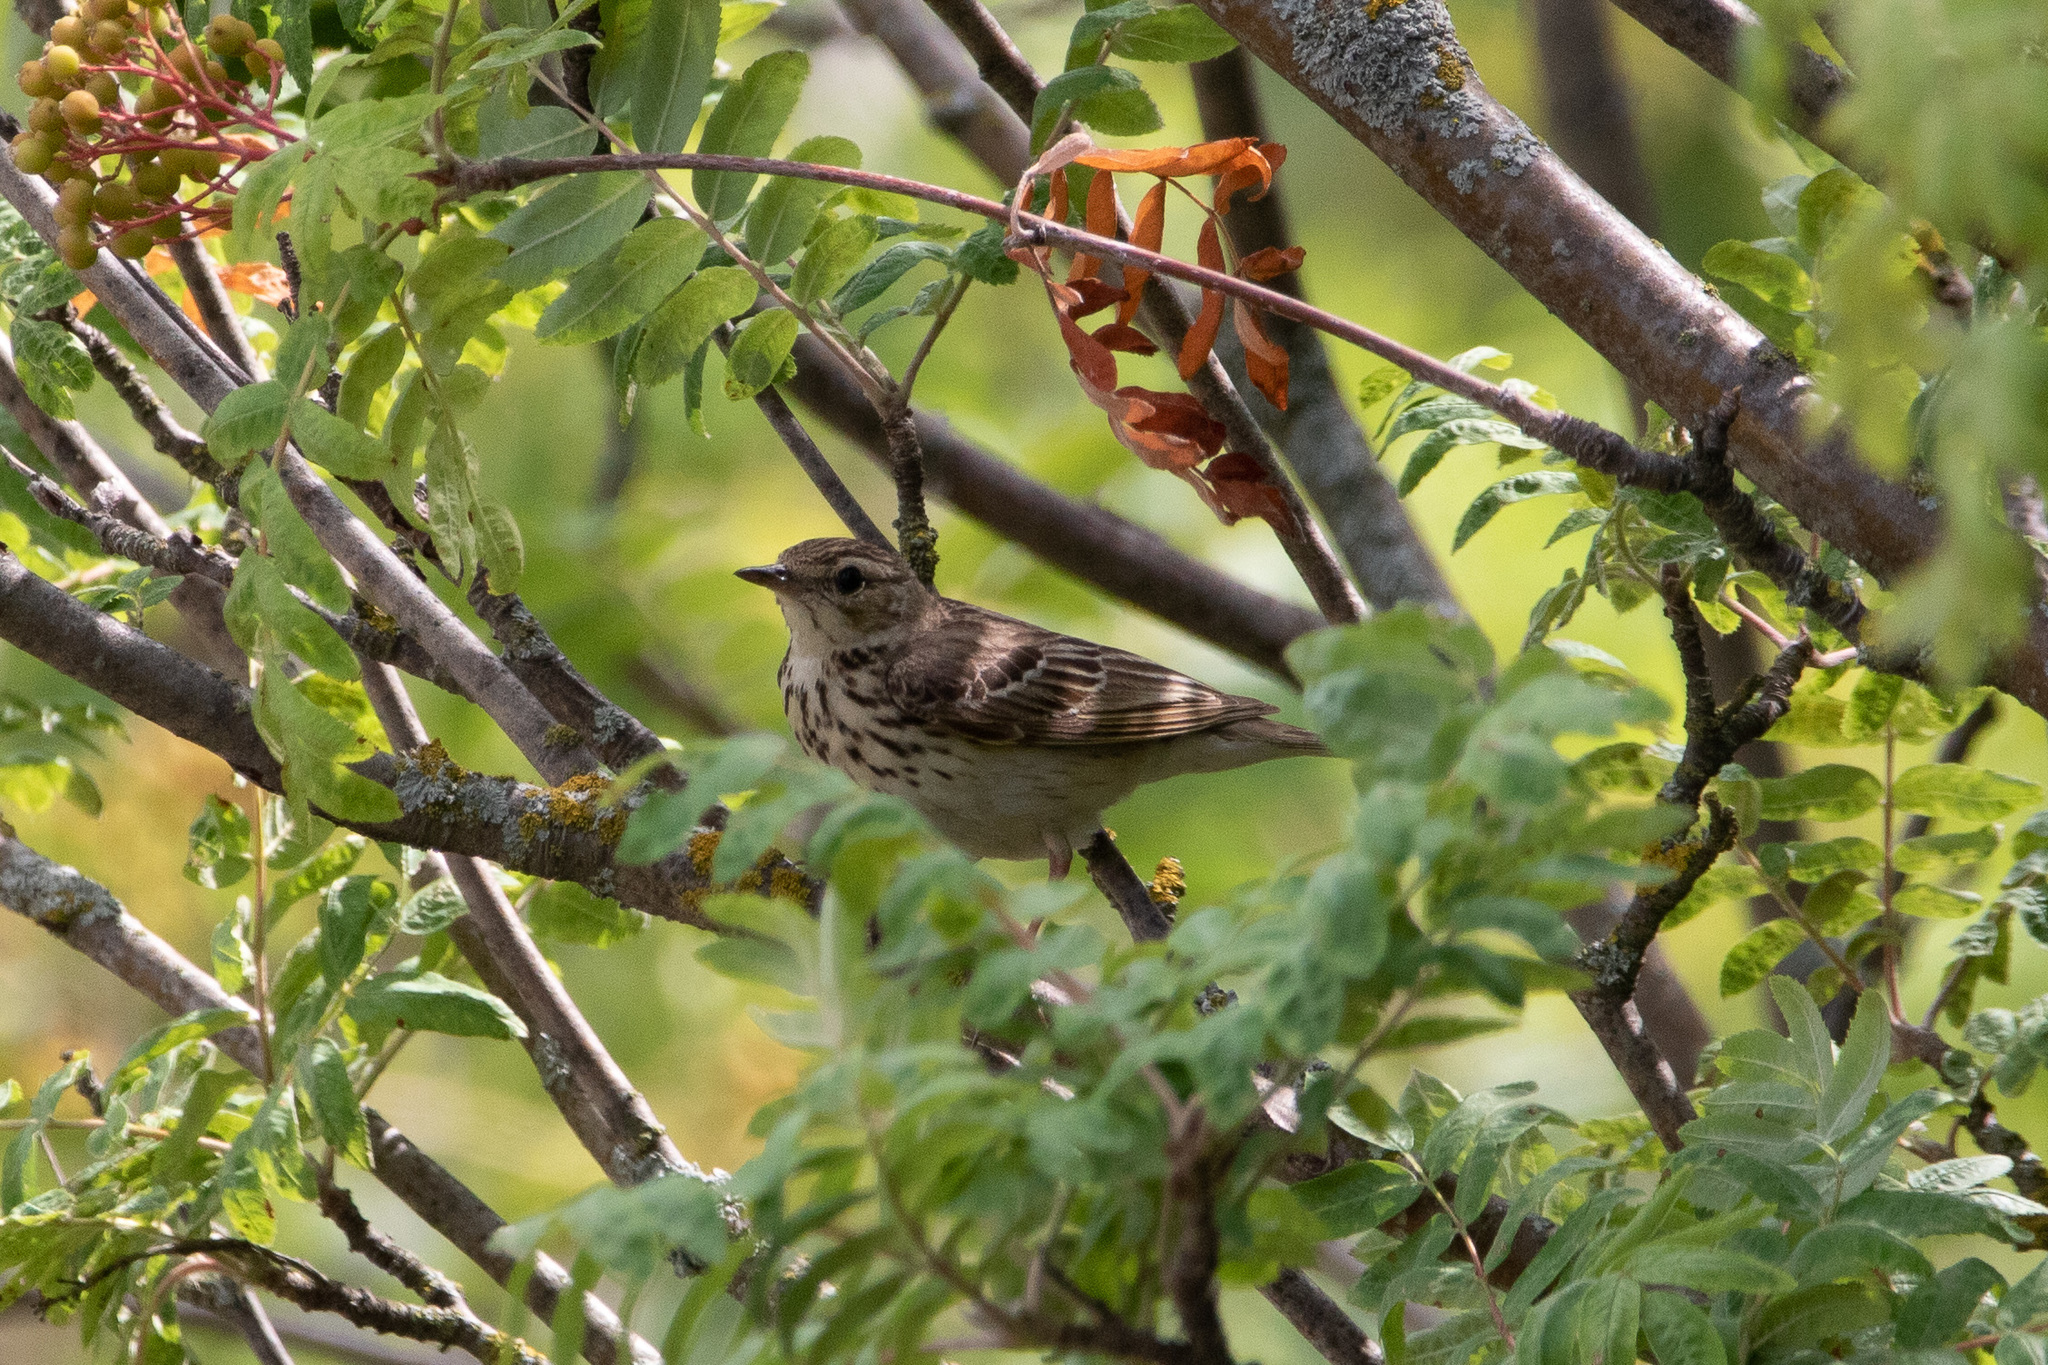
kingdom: Animalia
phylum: Chordata
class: Aves
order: Passeriformes
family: Motacillidae
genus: Anthus
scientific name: Anthus trivialis
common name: Tree pipit
